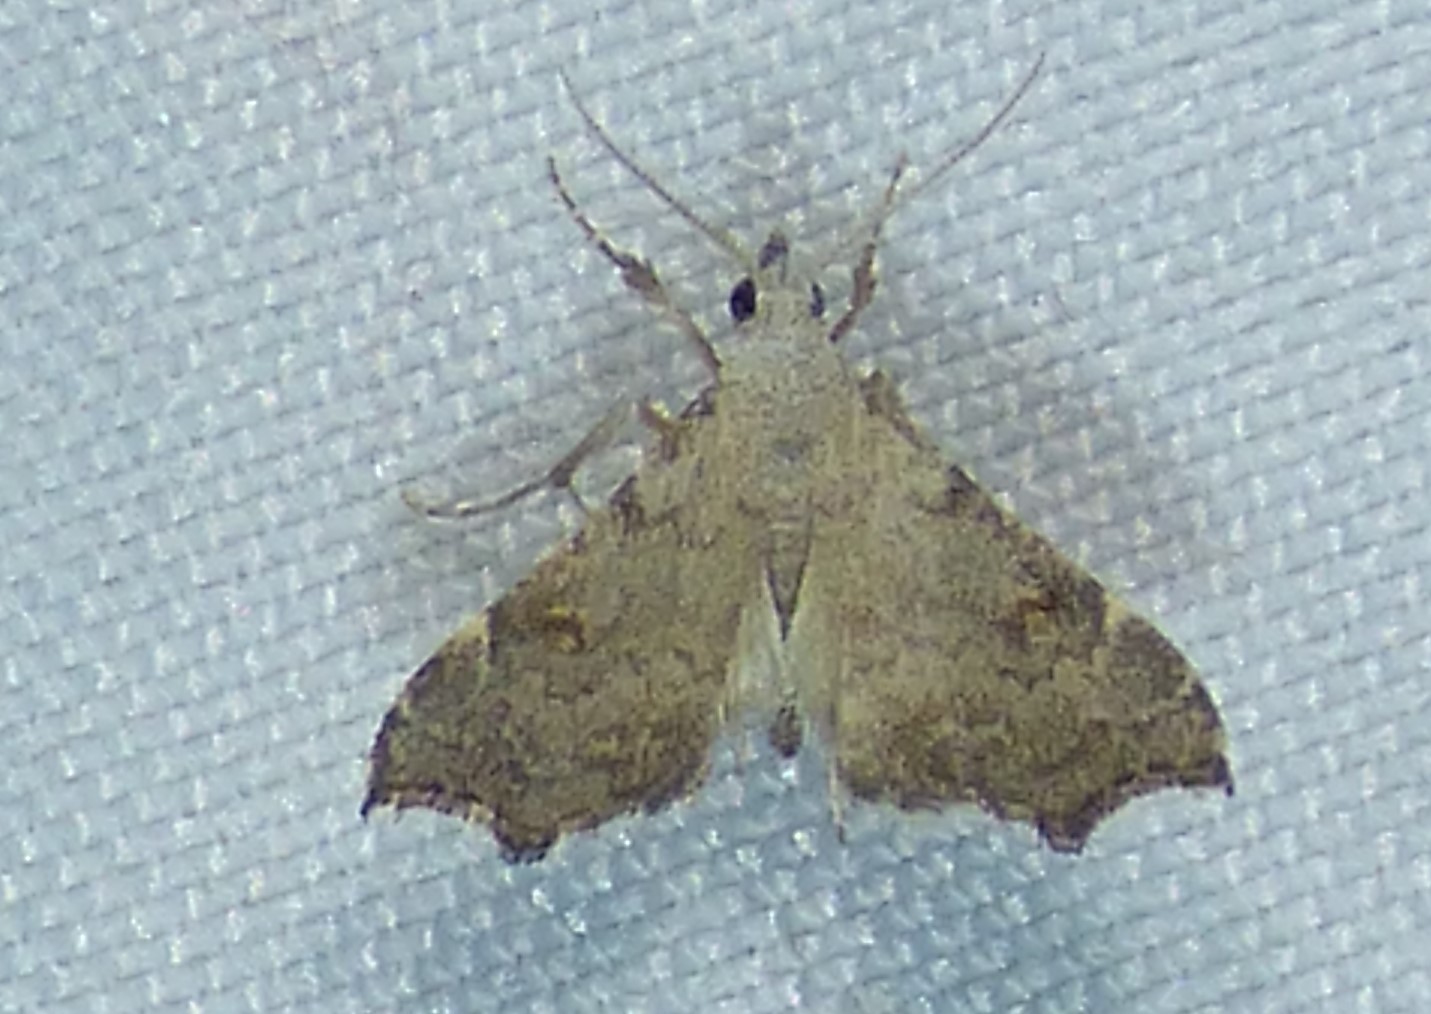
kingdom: Animalia
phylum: Arthropoda
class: Insecta
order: Lepidoptera
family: Erebidae
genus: Redectis
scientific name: Redectis pygmaea
